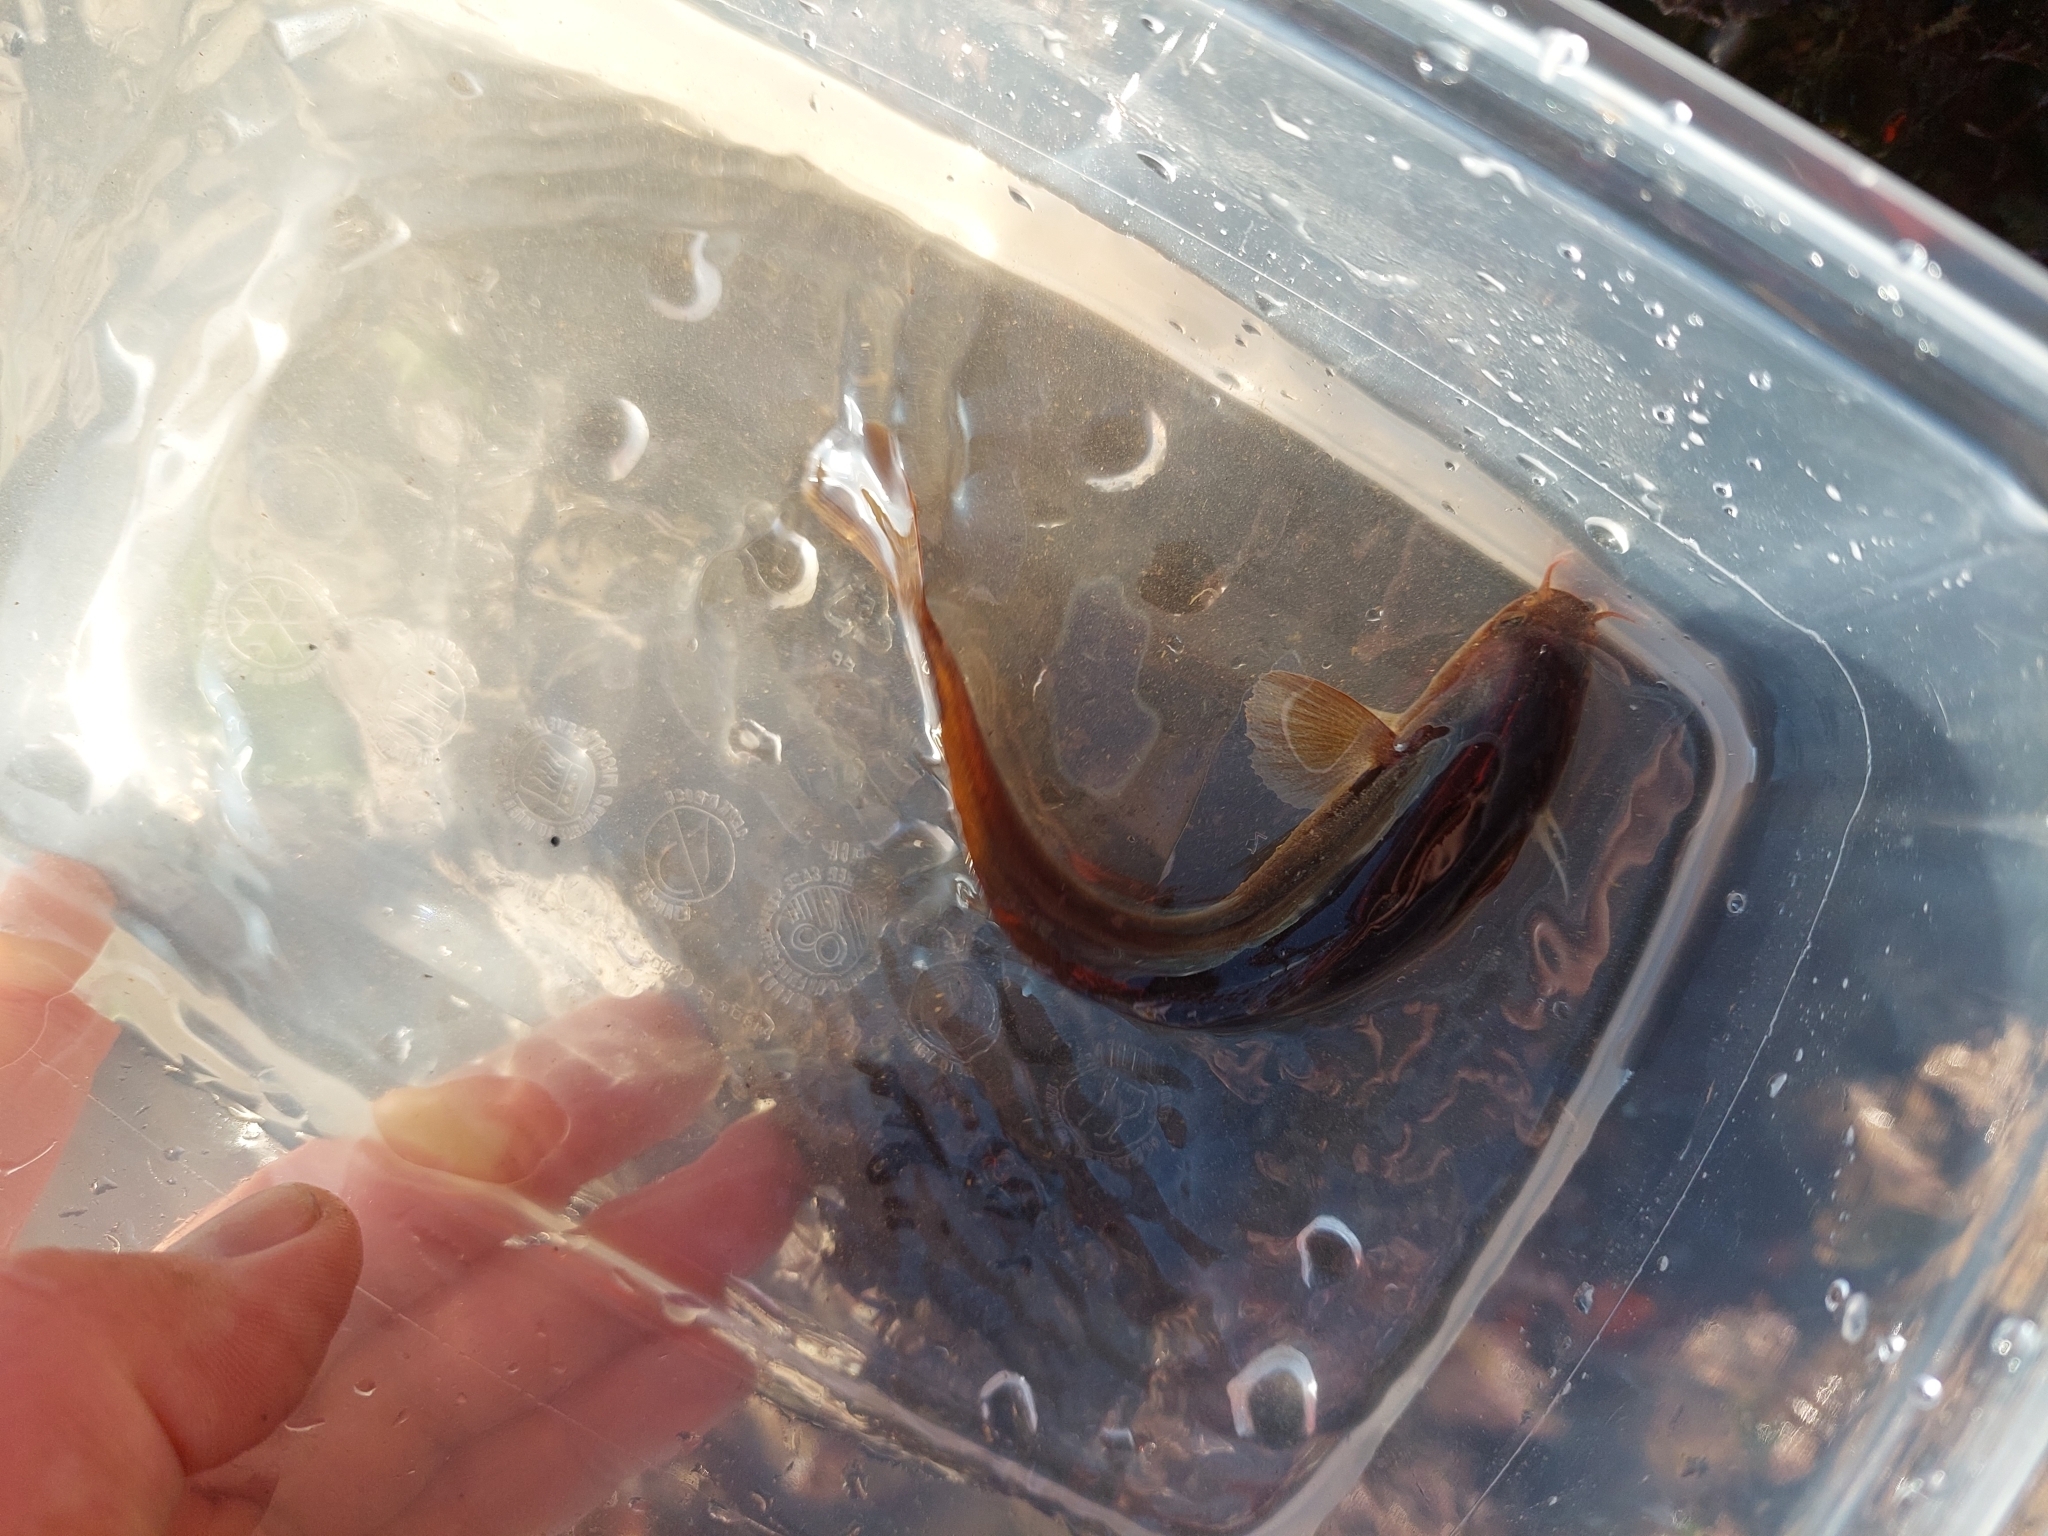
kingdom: Animalia
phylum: Chordata
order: Gadiformes
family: Lotidae
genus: Ciliata
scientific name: Ciliata mustela
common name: Five-bearded rockling
